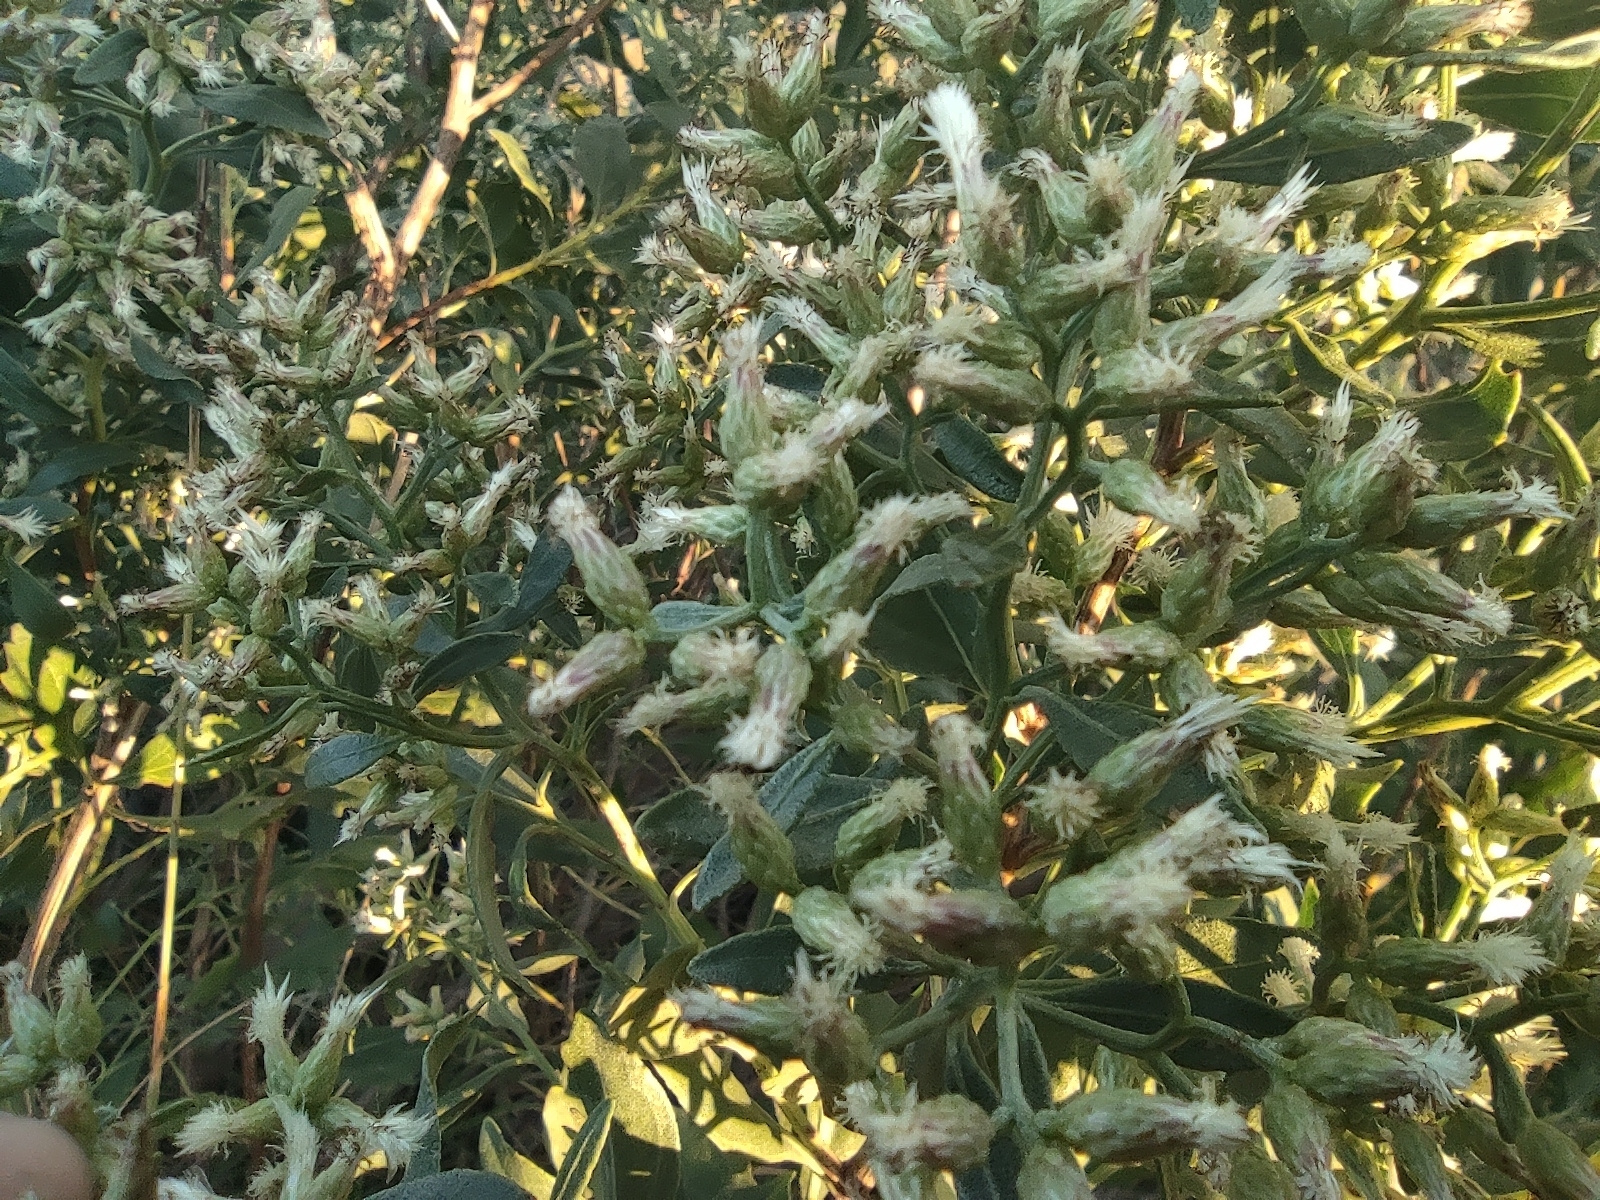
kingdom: Plantae
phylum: Tracheophyta
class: Magnoliopsida
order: Asterales
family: Asteraceae
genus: Baccharis
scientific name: Baccharis halimifolia
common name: Eastern baccharis
